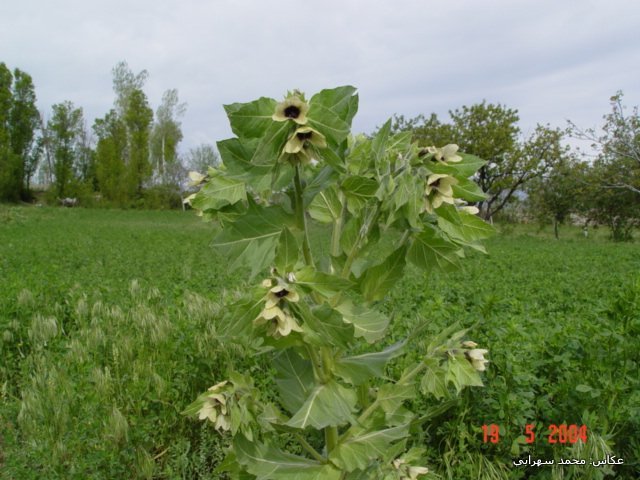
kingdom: Plantae
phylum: Tracheophyta
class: Magnoliopsida
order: Solanales
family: Solanaceae
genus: Hyoscyamus
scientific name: Hyoscyamus niger
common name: Henbane
